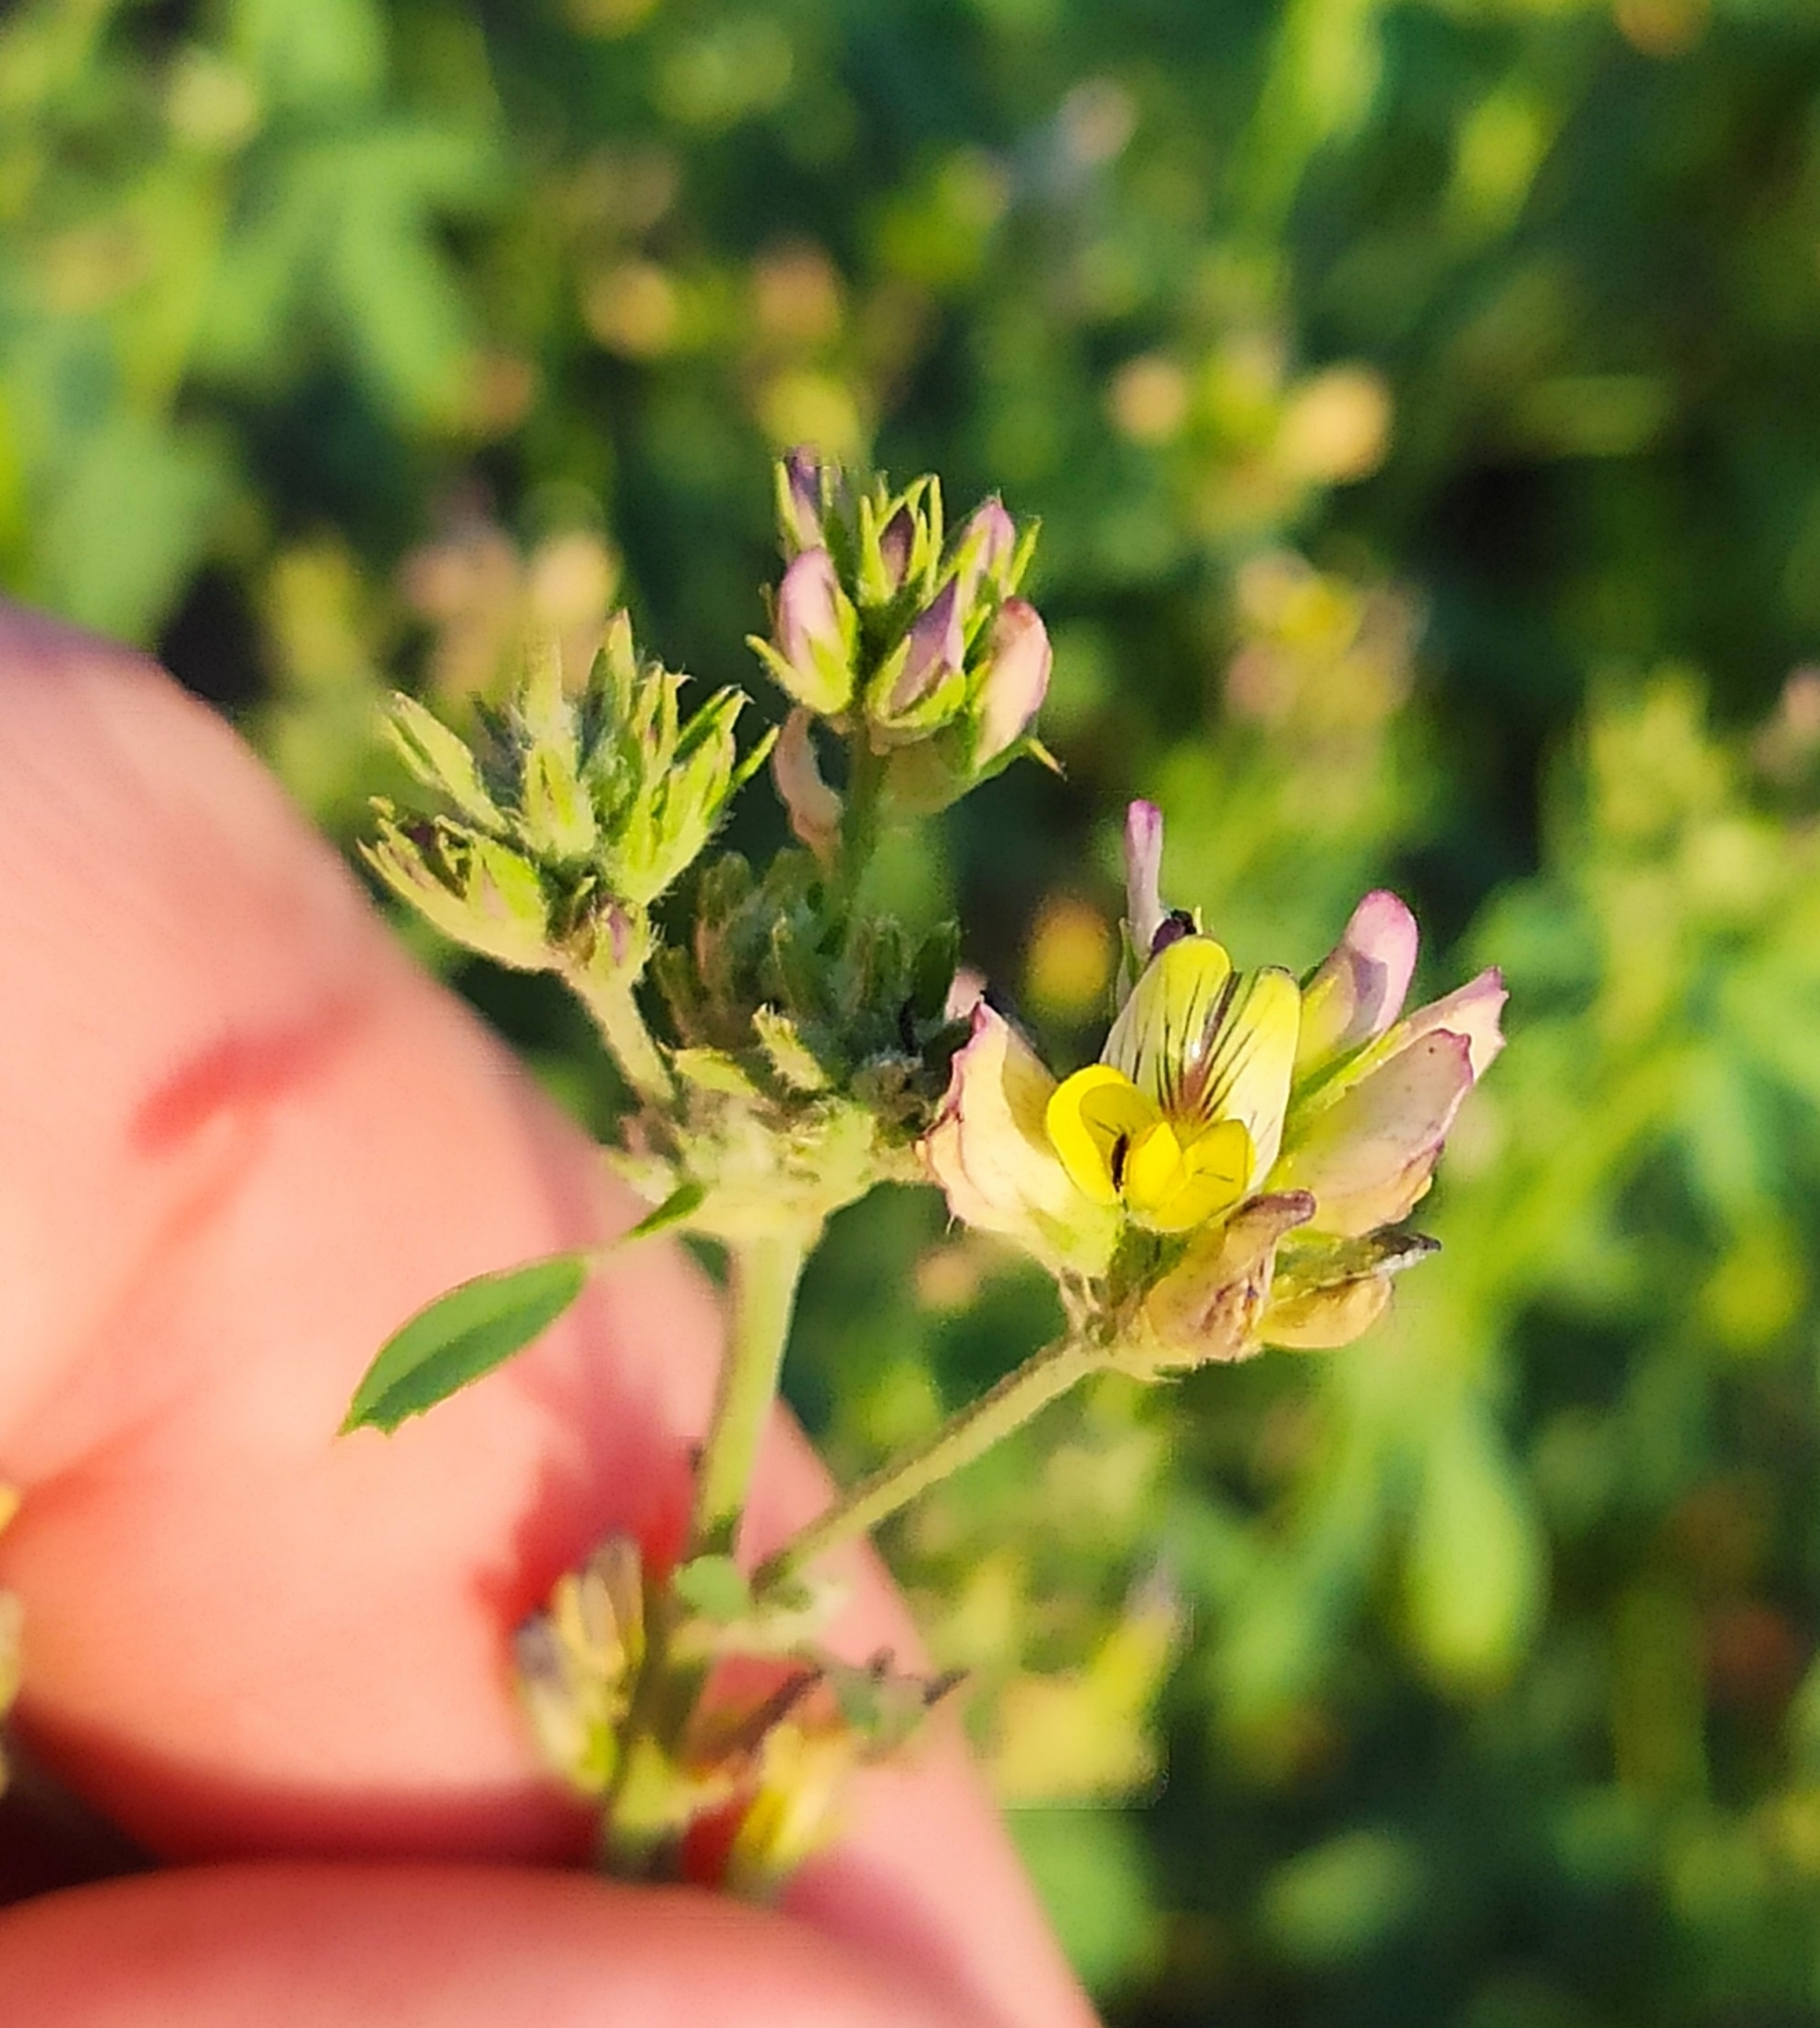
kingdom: Plantae
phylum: Tracheophyta
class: Magnoliopsida
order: Fabales
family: Fabaceae
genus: Medicago
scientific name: Medicago varia
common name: Sand lucerne
